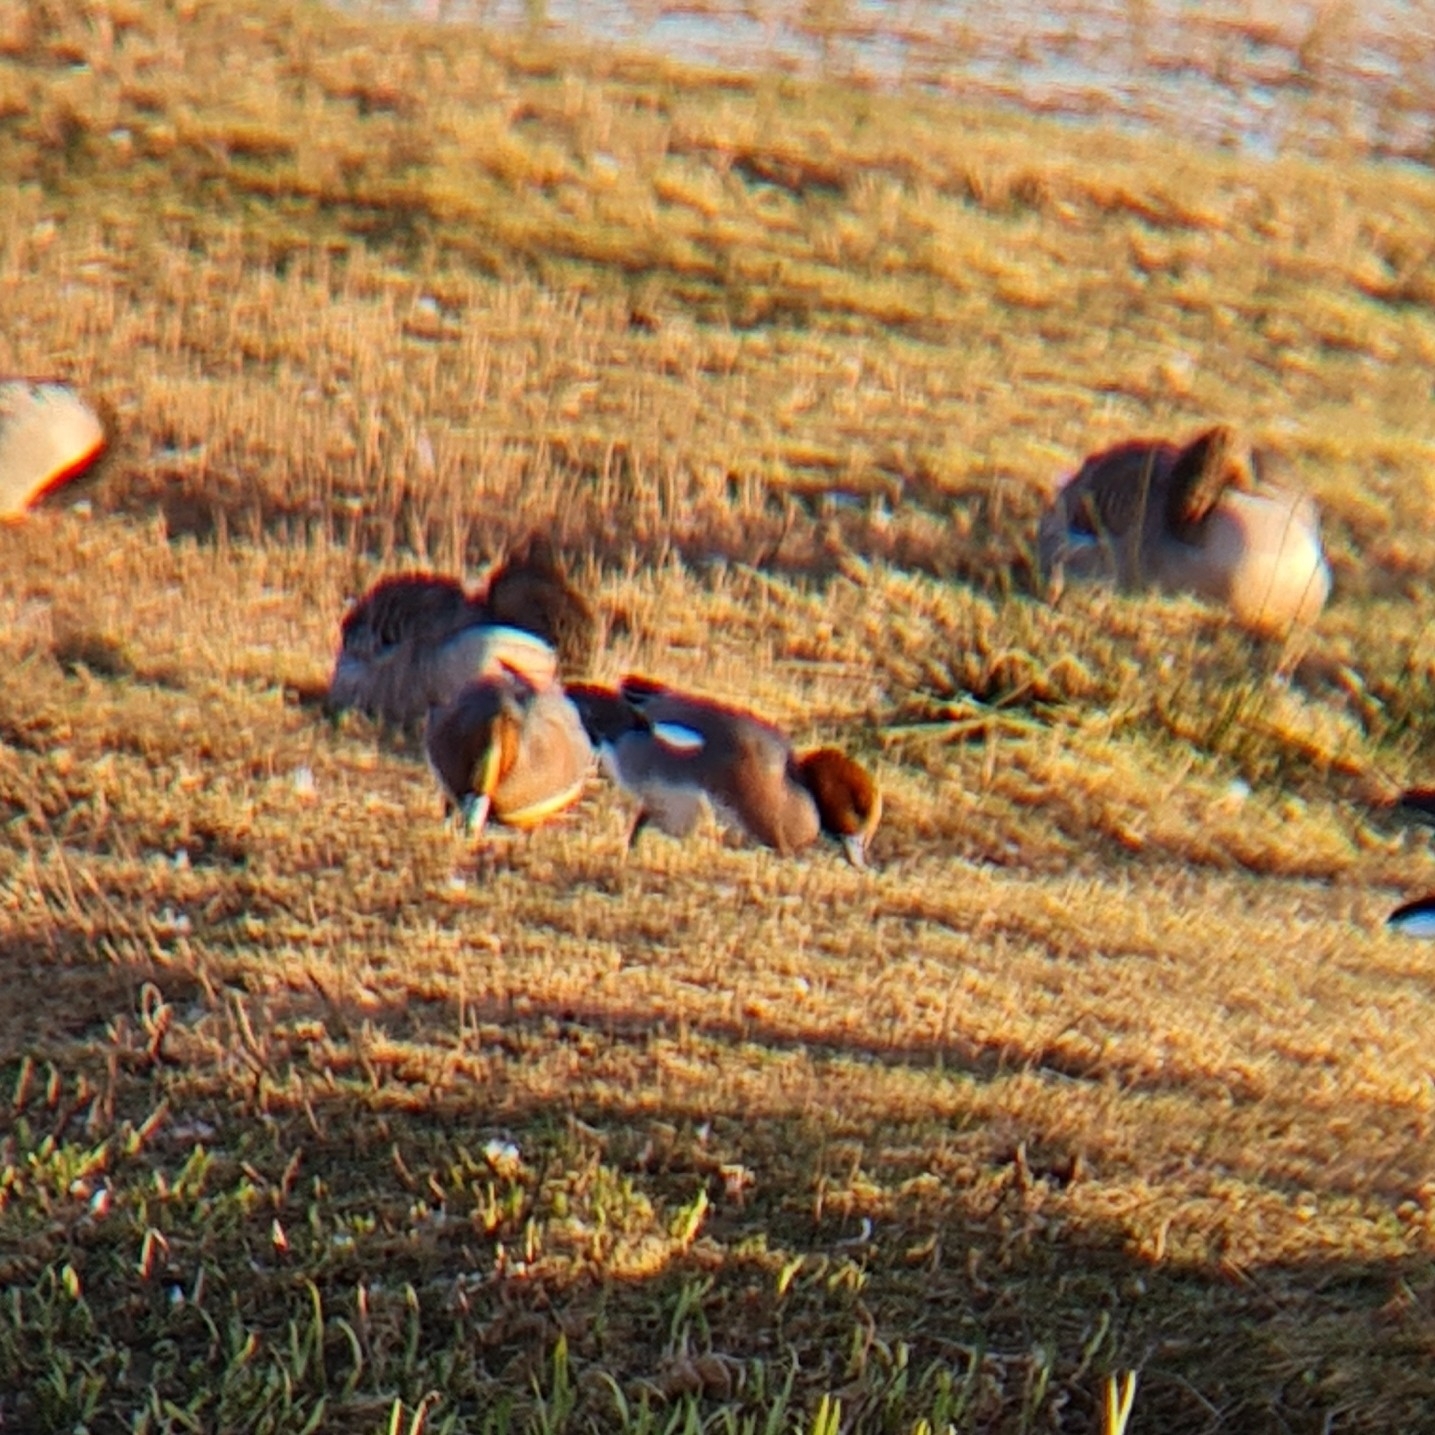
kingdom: Animalia
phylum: Chordata
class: Aves
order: Anseriformes
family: Anatidae
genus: Mareca
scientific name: Mareca penelope
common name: Eurasian wigeon
